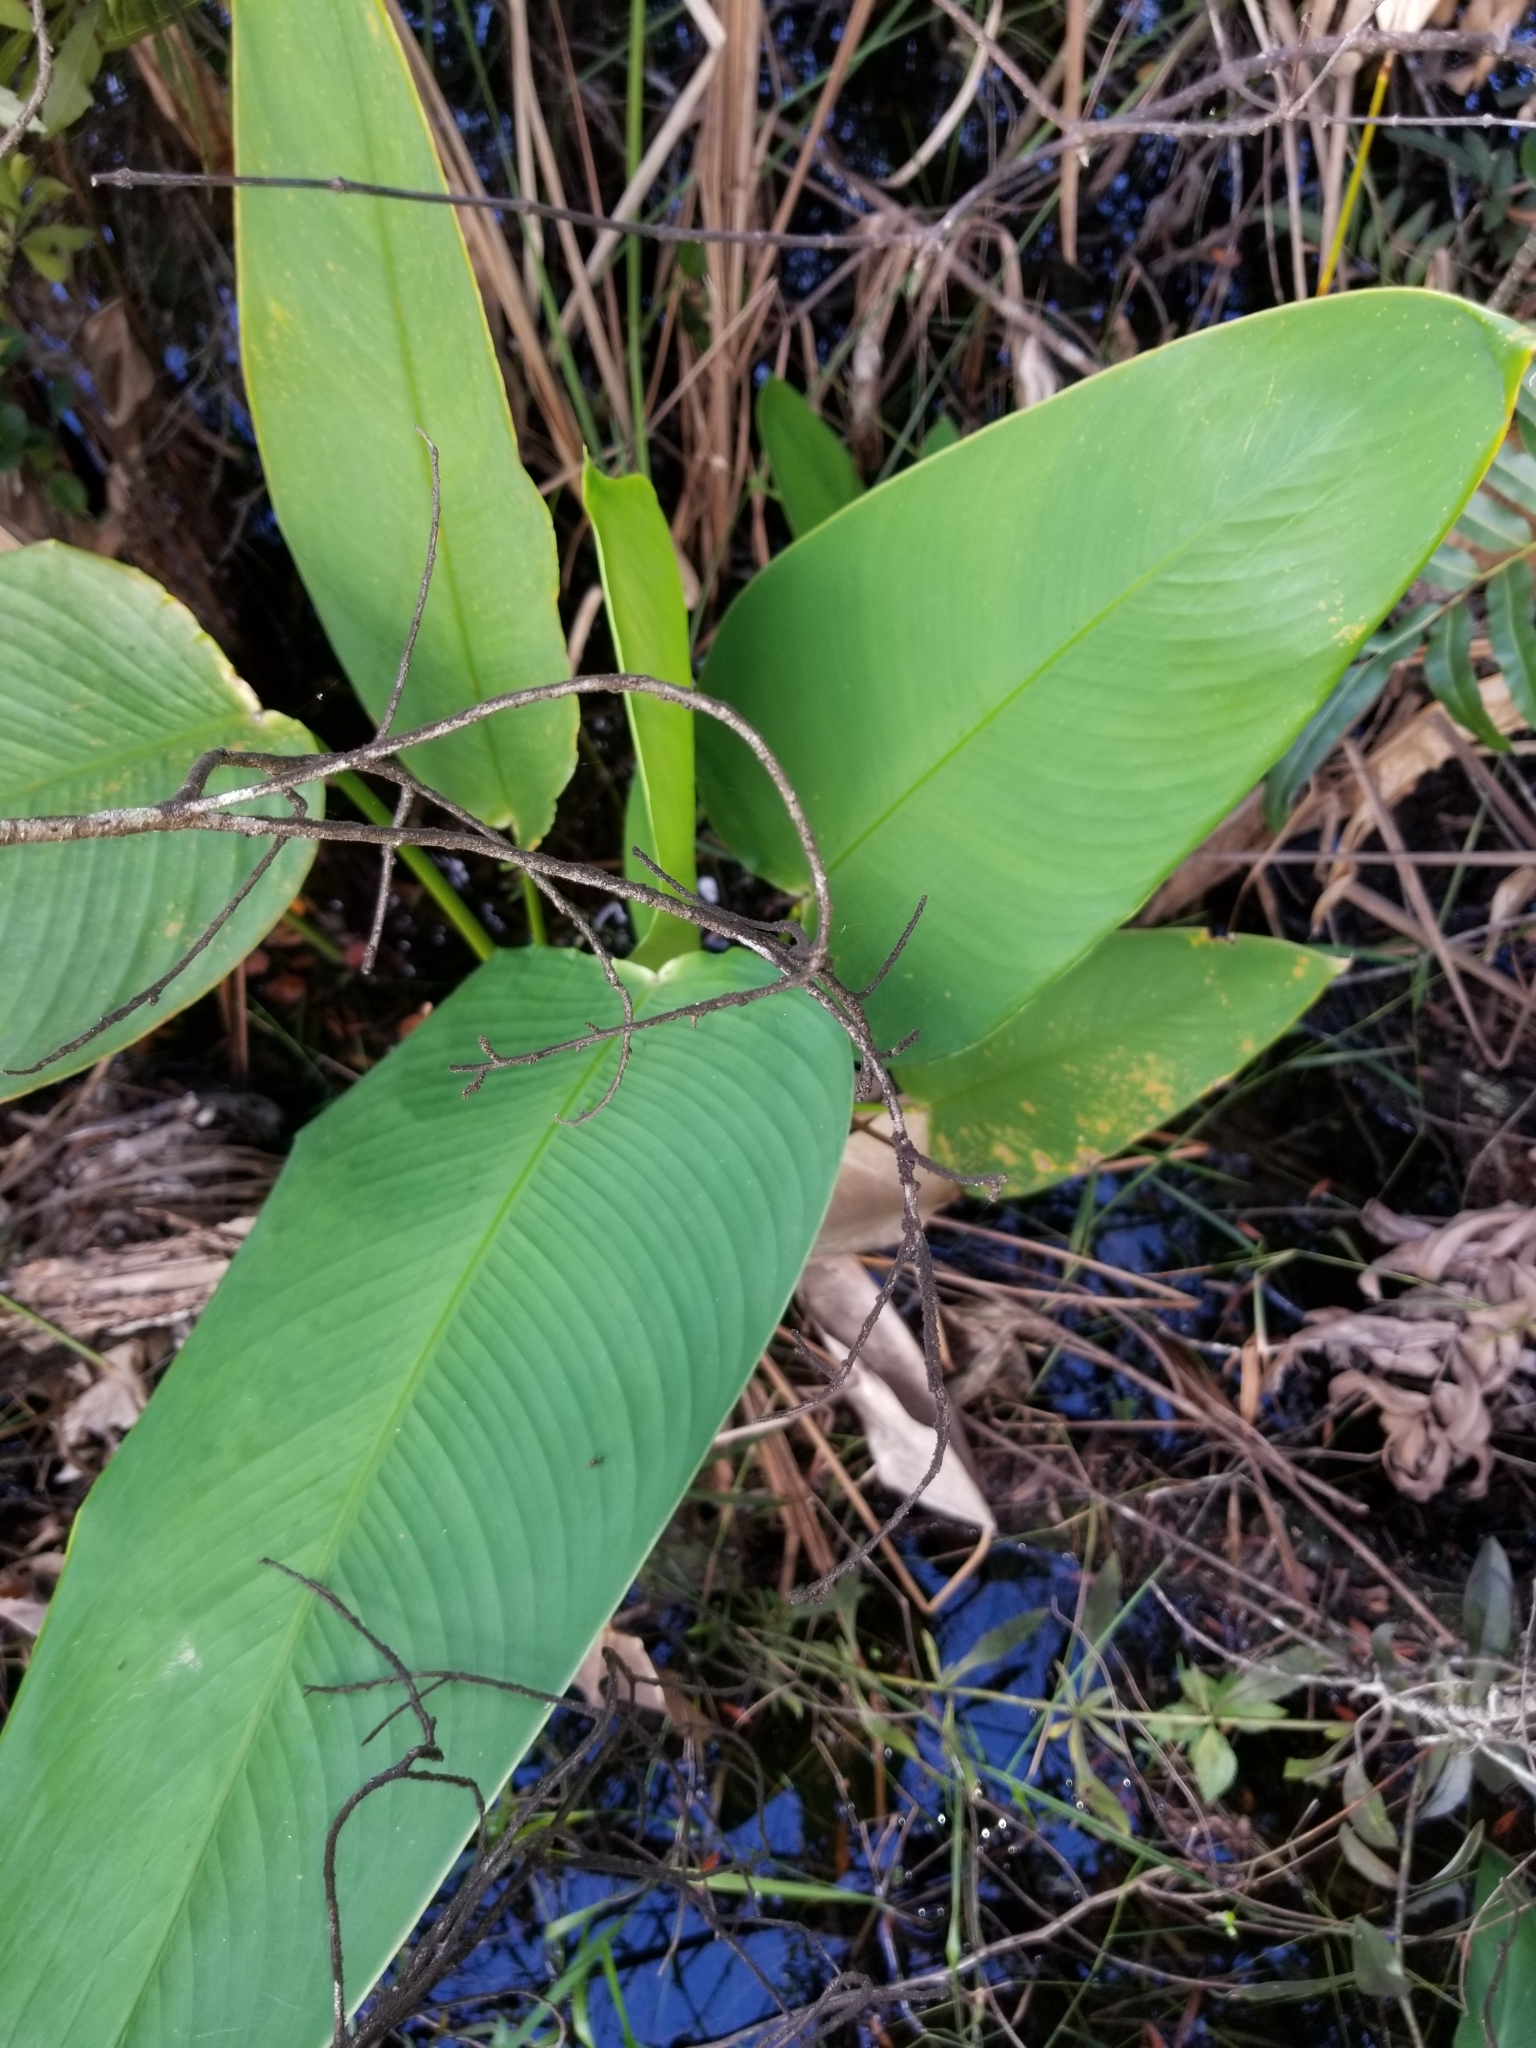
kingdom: Plantae
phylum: Tracheophyta
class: Liliopsida
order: Zingiberales
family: Marantaceae
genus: Thalia
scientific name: Thalia geniculata
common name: Arrowroot
